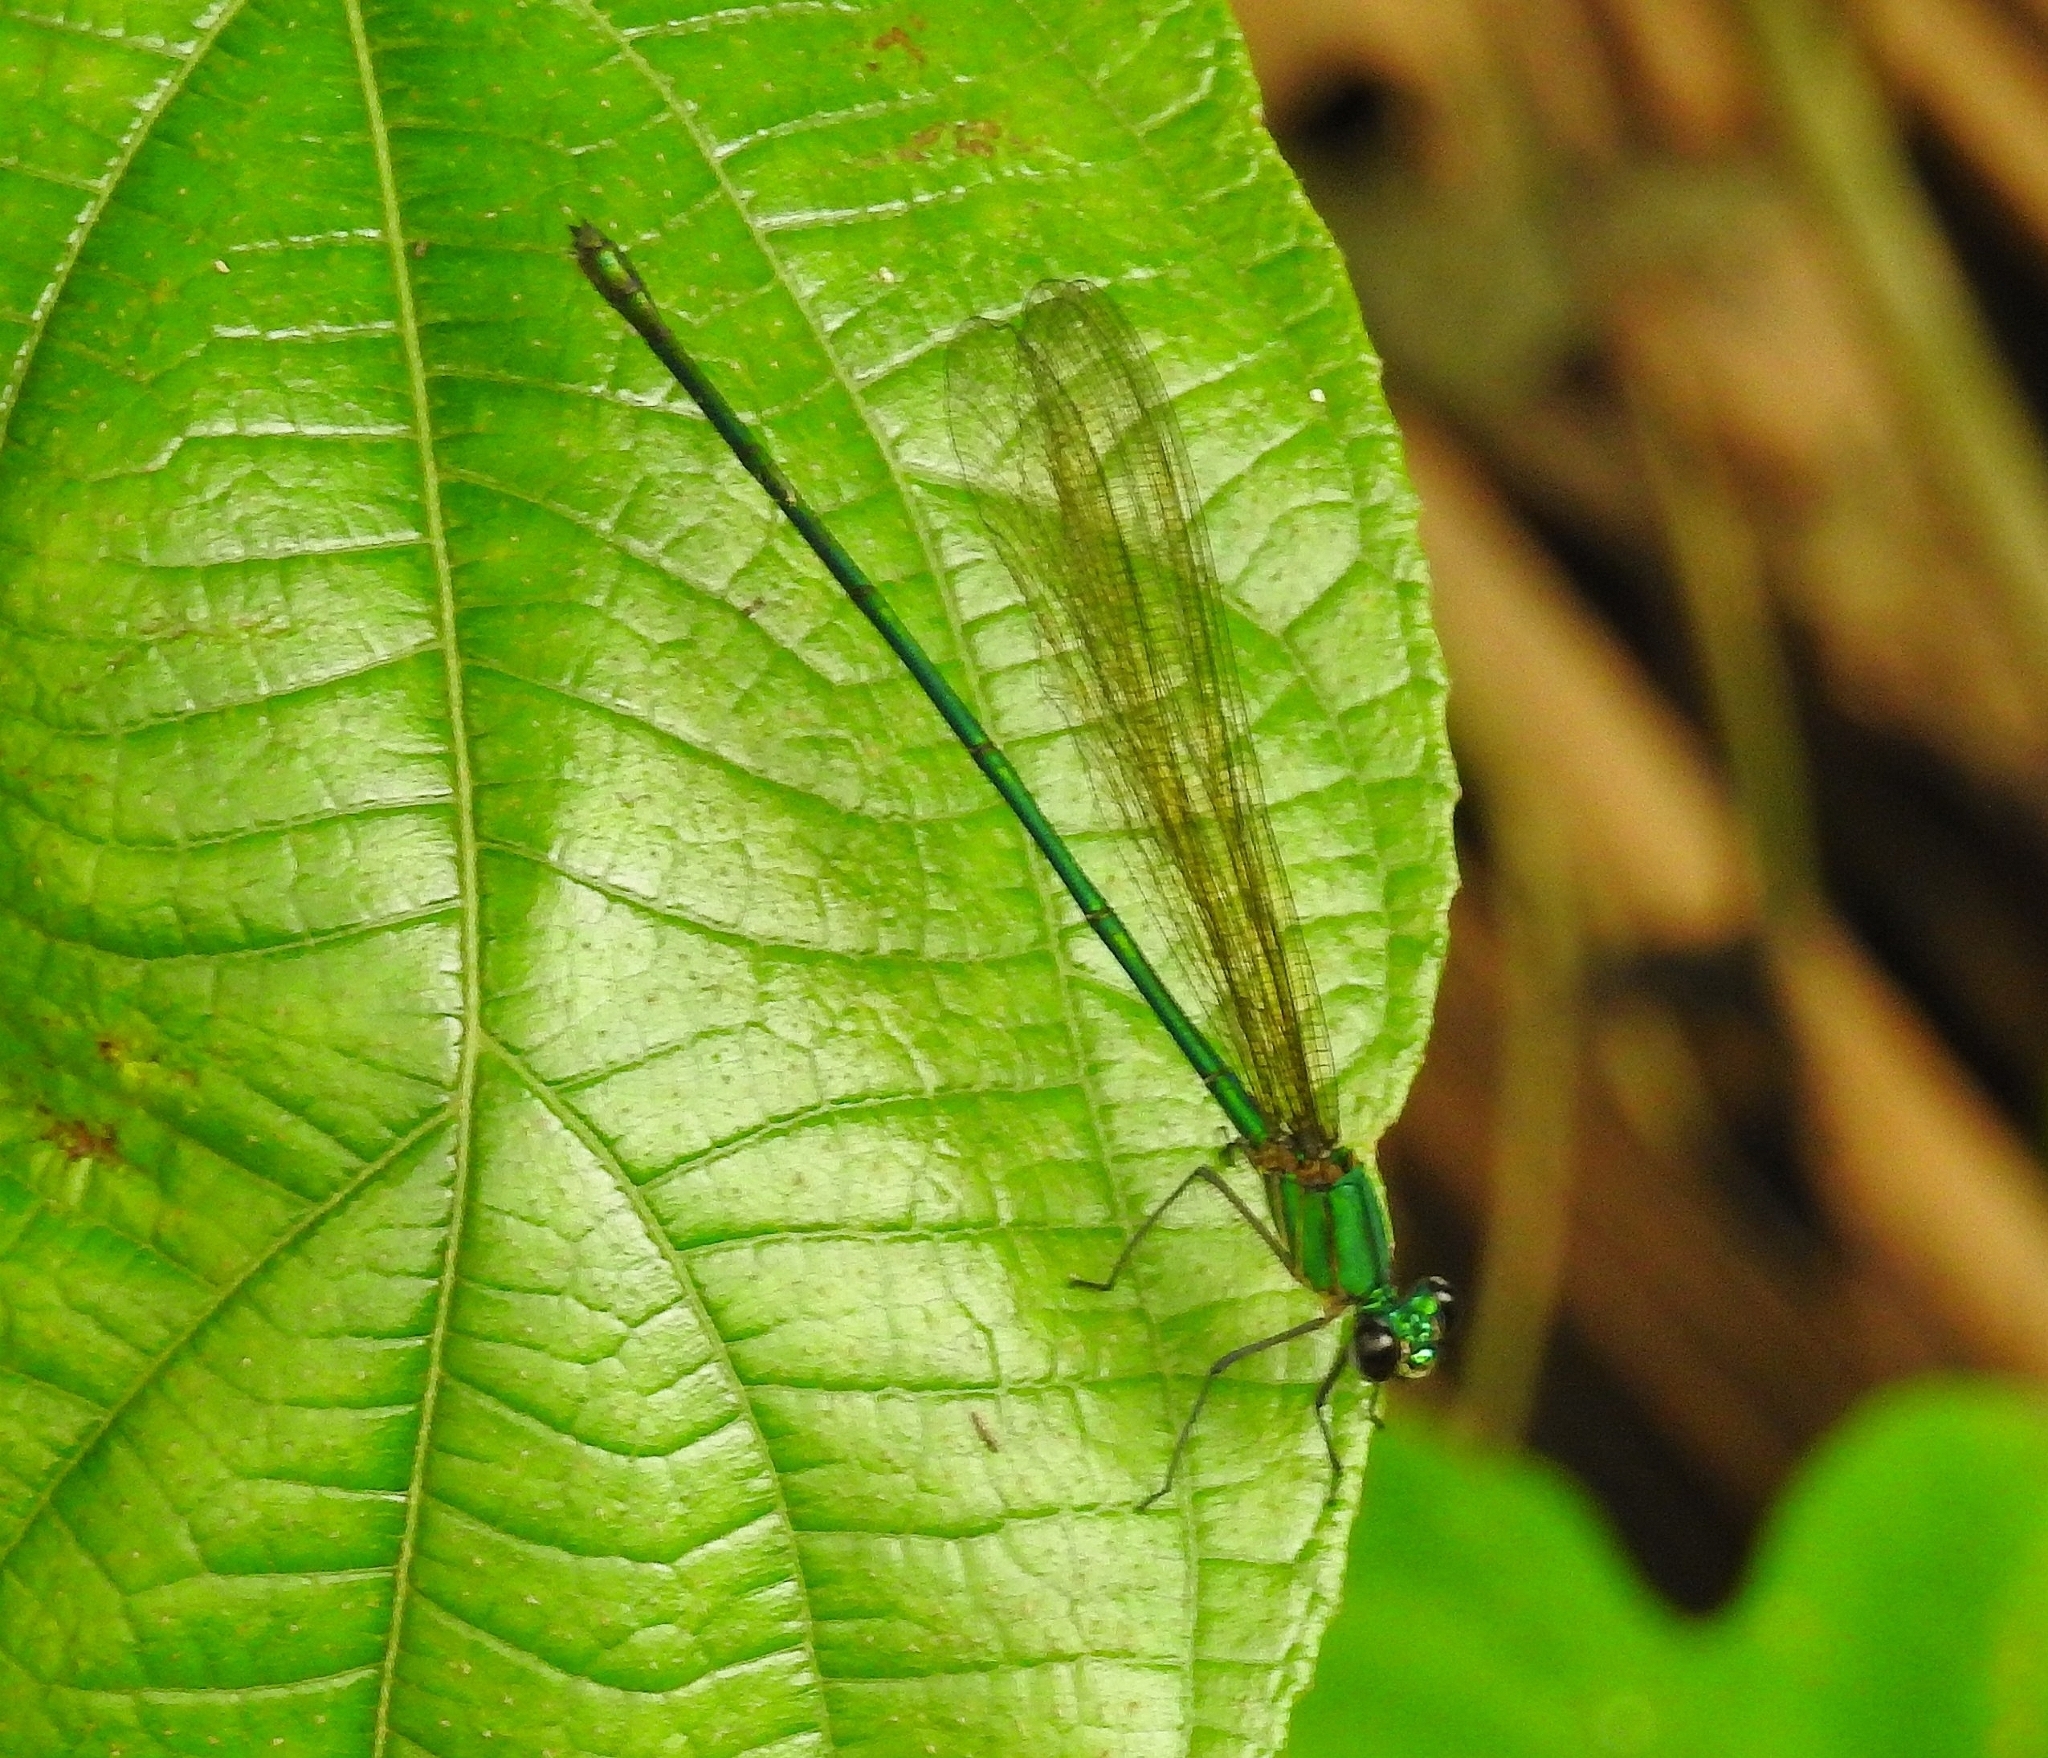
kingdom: Animalia
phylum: Arthropoda
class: Insecta
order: Odonata
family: Calopterygidae
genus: Vestalis
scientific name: Vestalis gracilis
